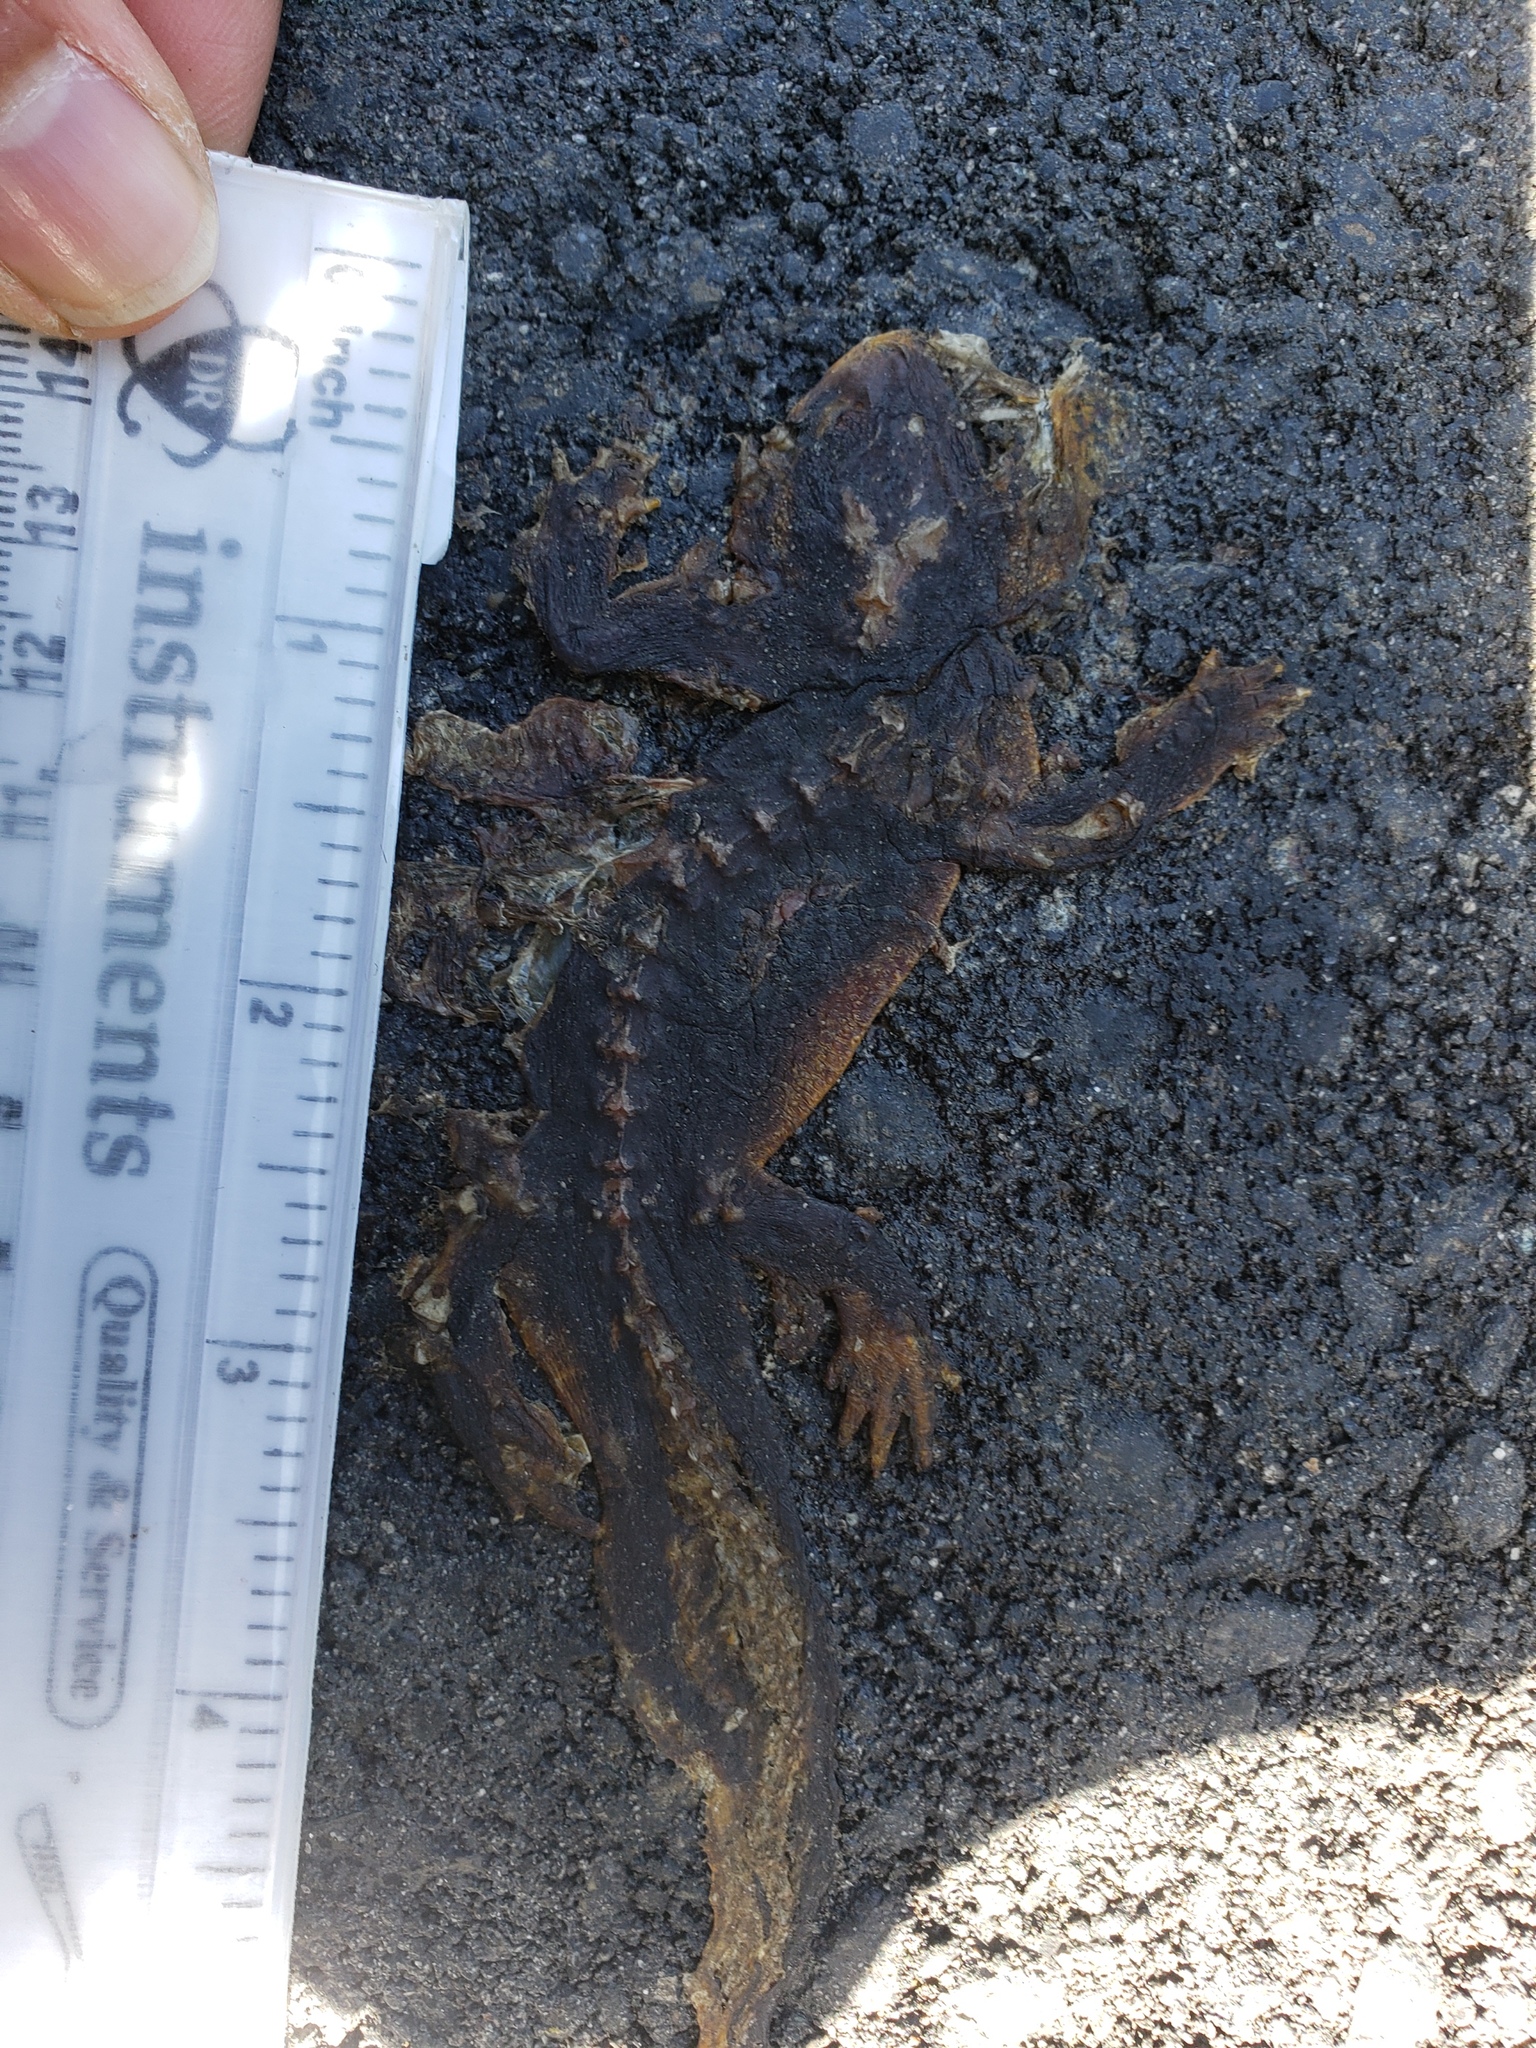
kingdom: Animalia
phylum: Chordata
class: Amphibia
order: Caudata
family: Salamandridae
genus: Taricha
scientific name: Taricha
